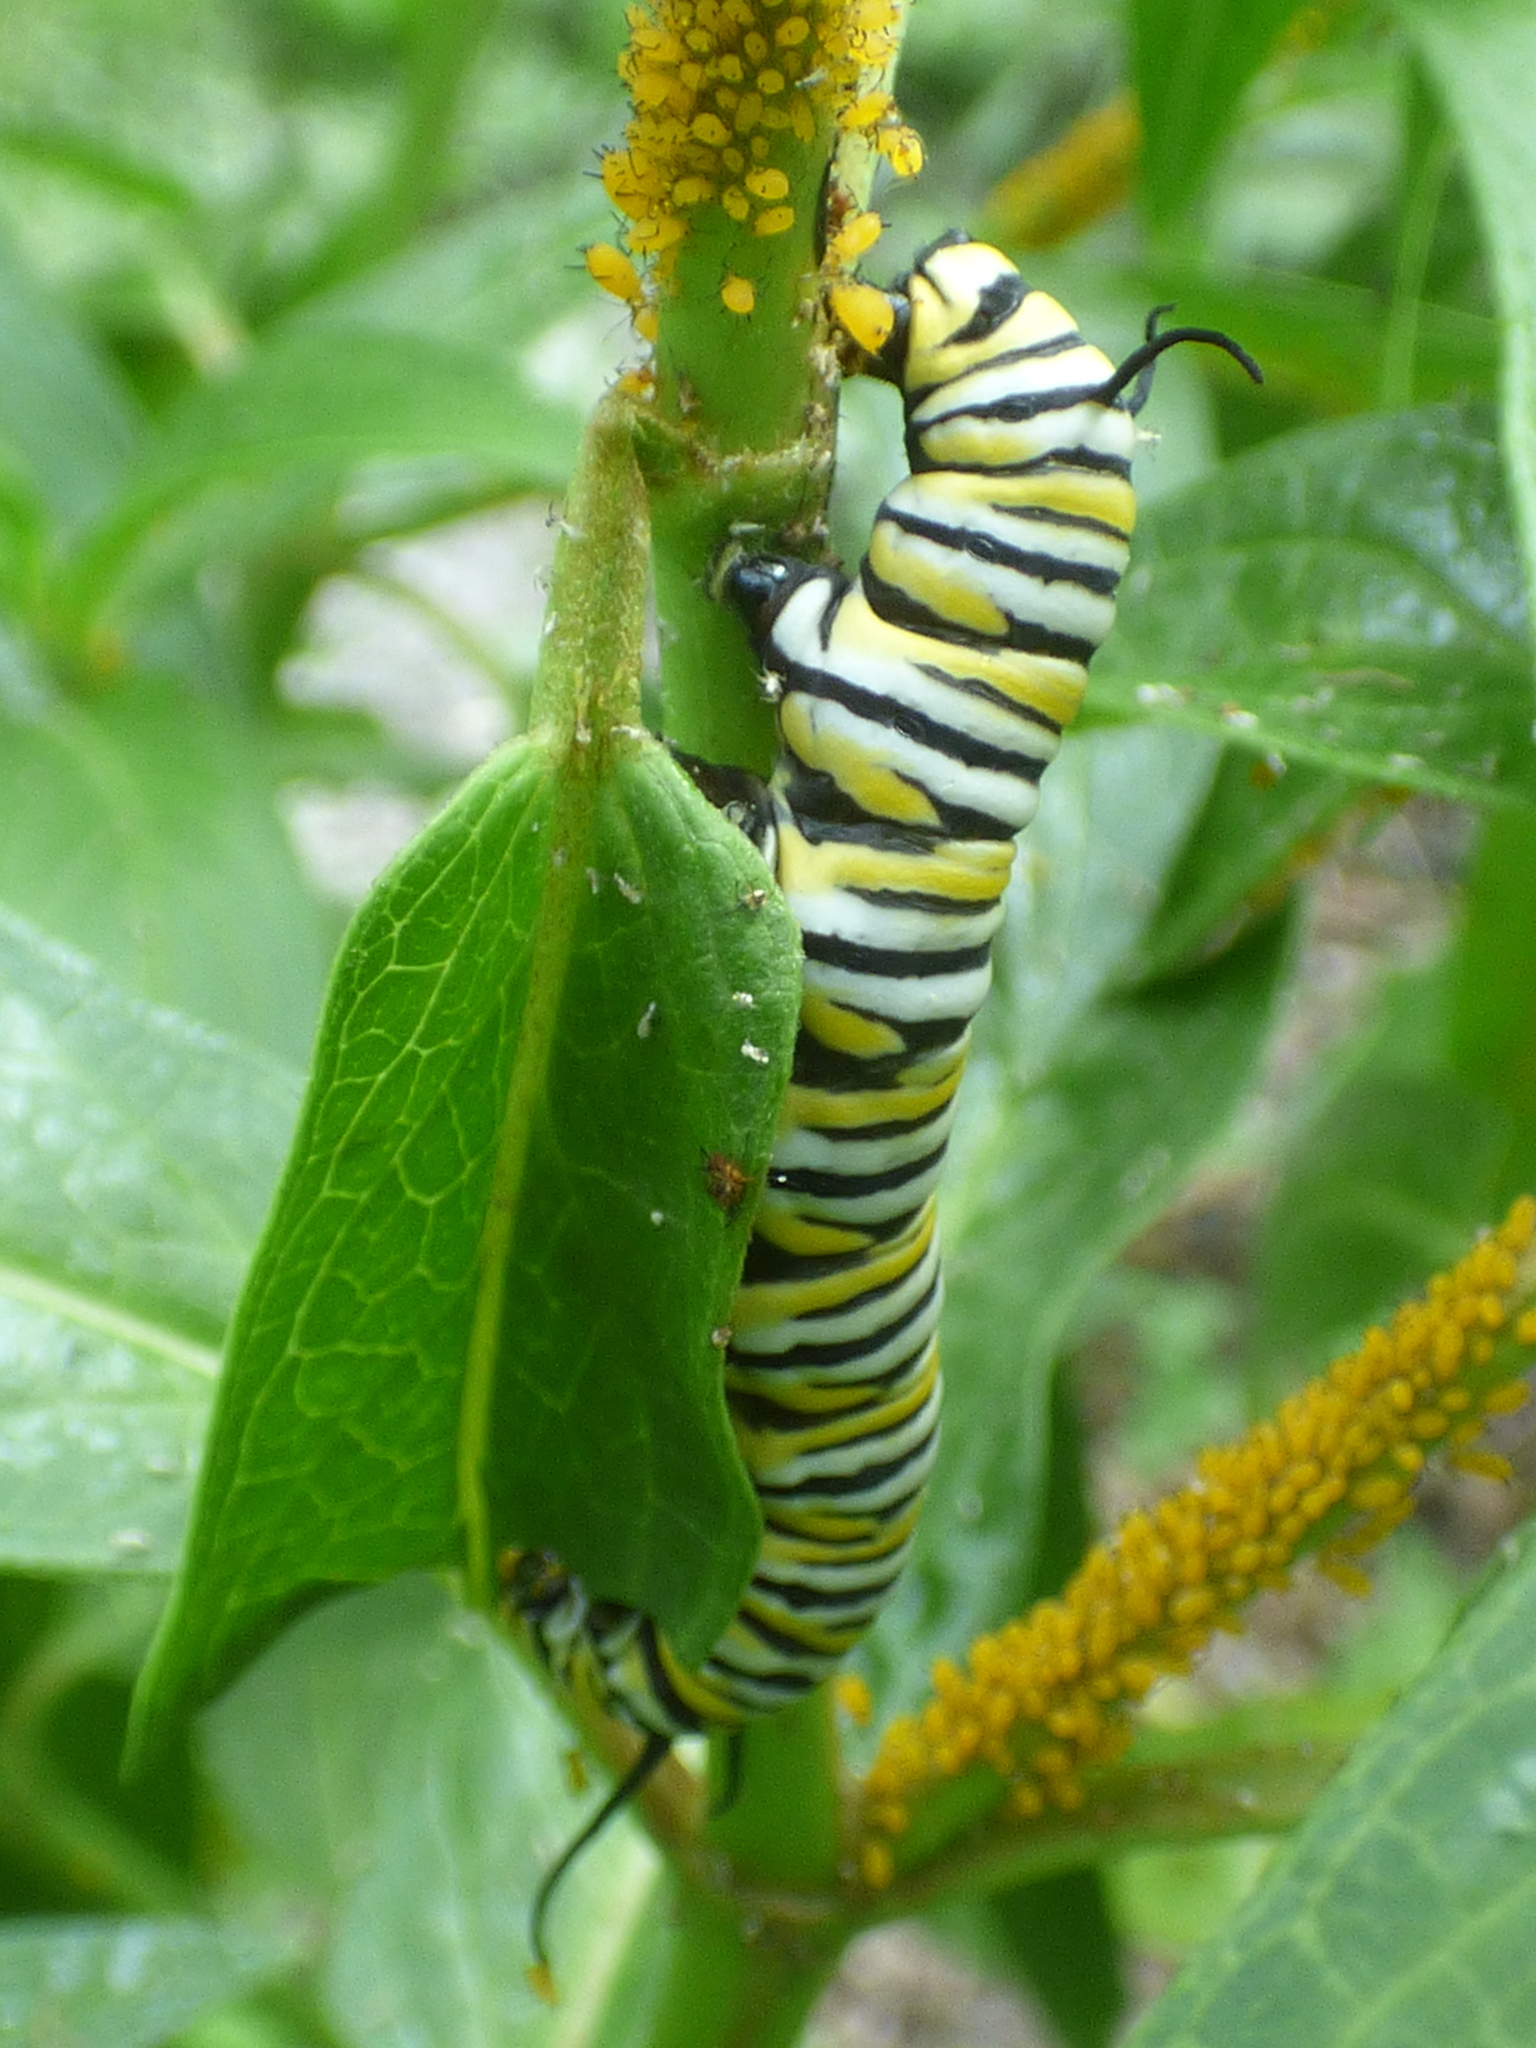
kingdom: Animalia
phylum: Arthropoda
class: Insecta
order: Lepidoptera
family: Nymphalidae
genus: Danaus
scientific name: Danaus plexippus
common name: Monarch
